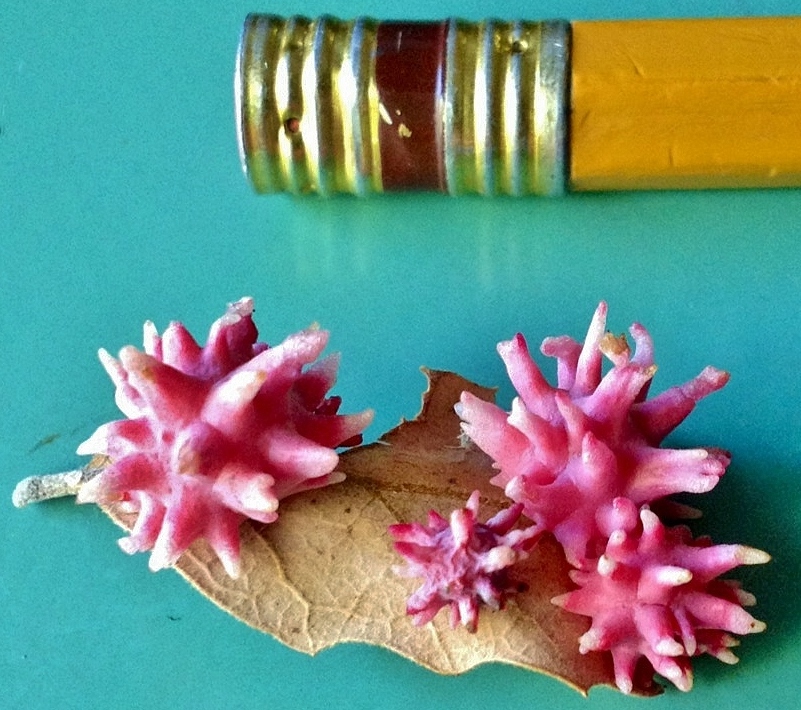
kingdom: Animalia
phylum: Arthropoda
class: Insecta
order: Hymenoptera
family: Cynipidae
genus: Cynips
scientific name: Cynips
